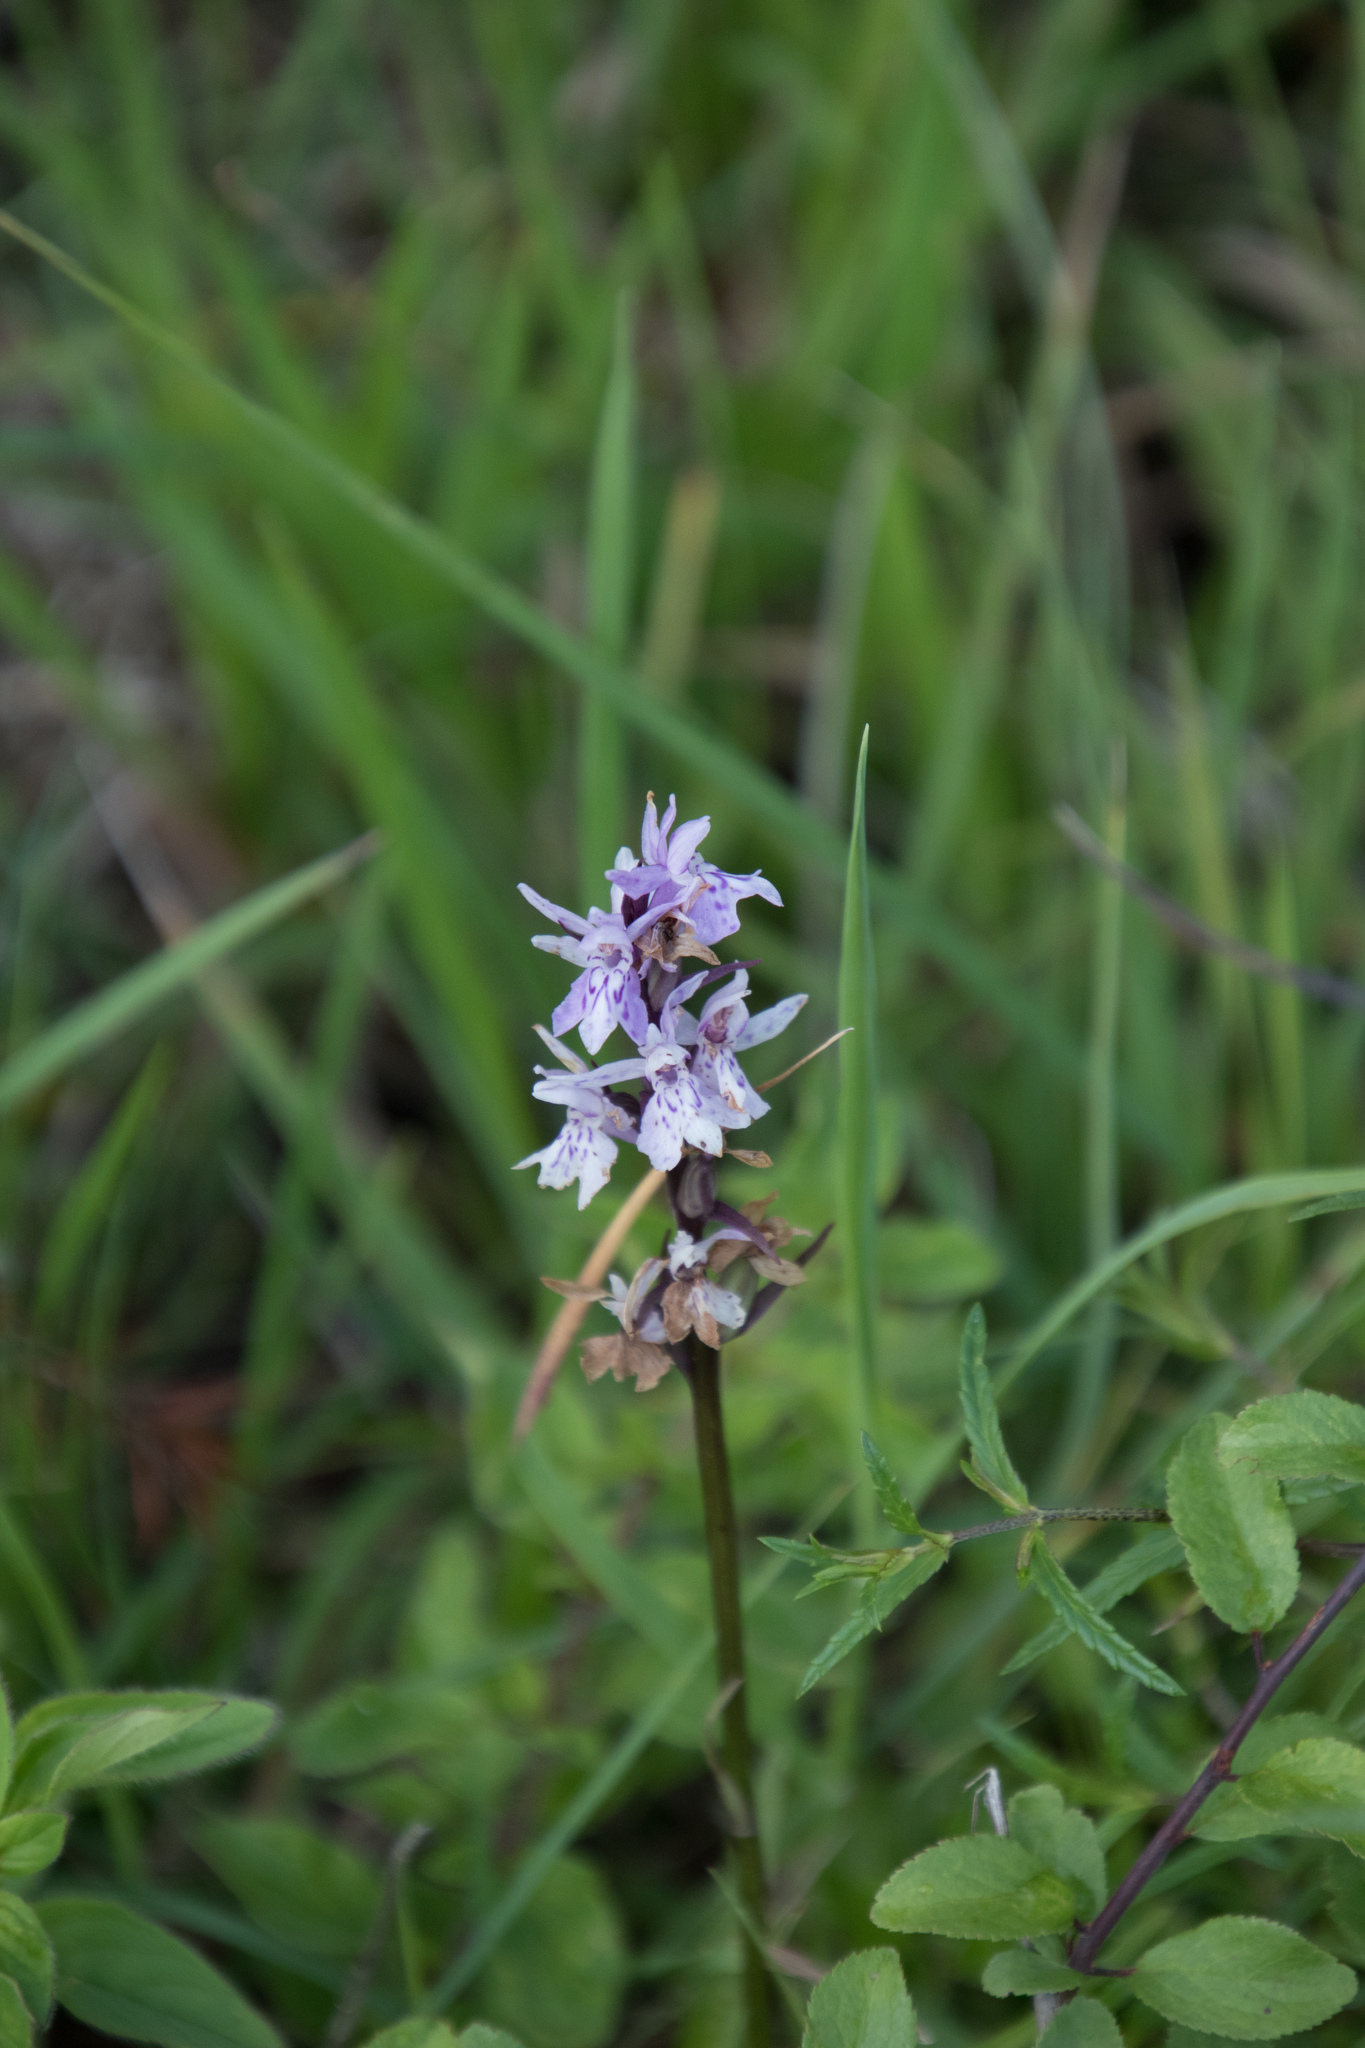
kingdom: Plantae
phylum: Tracheophyta
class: Liliopsida
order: Asparagales
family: Orchidaceae
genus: Dactylorhiza
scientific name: Dactylorhiza maculata
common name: Heath spotted-orchid
